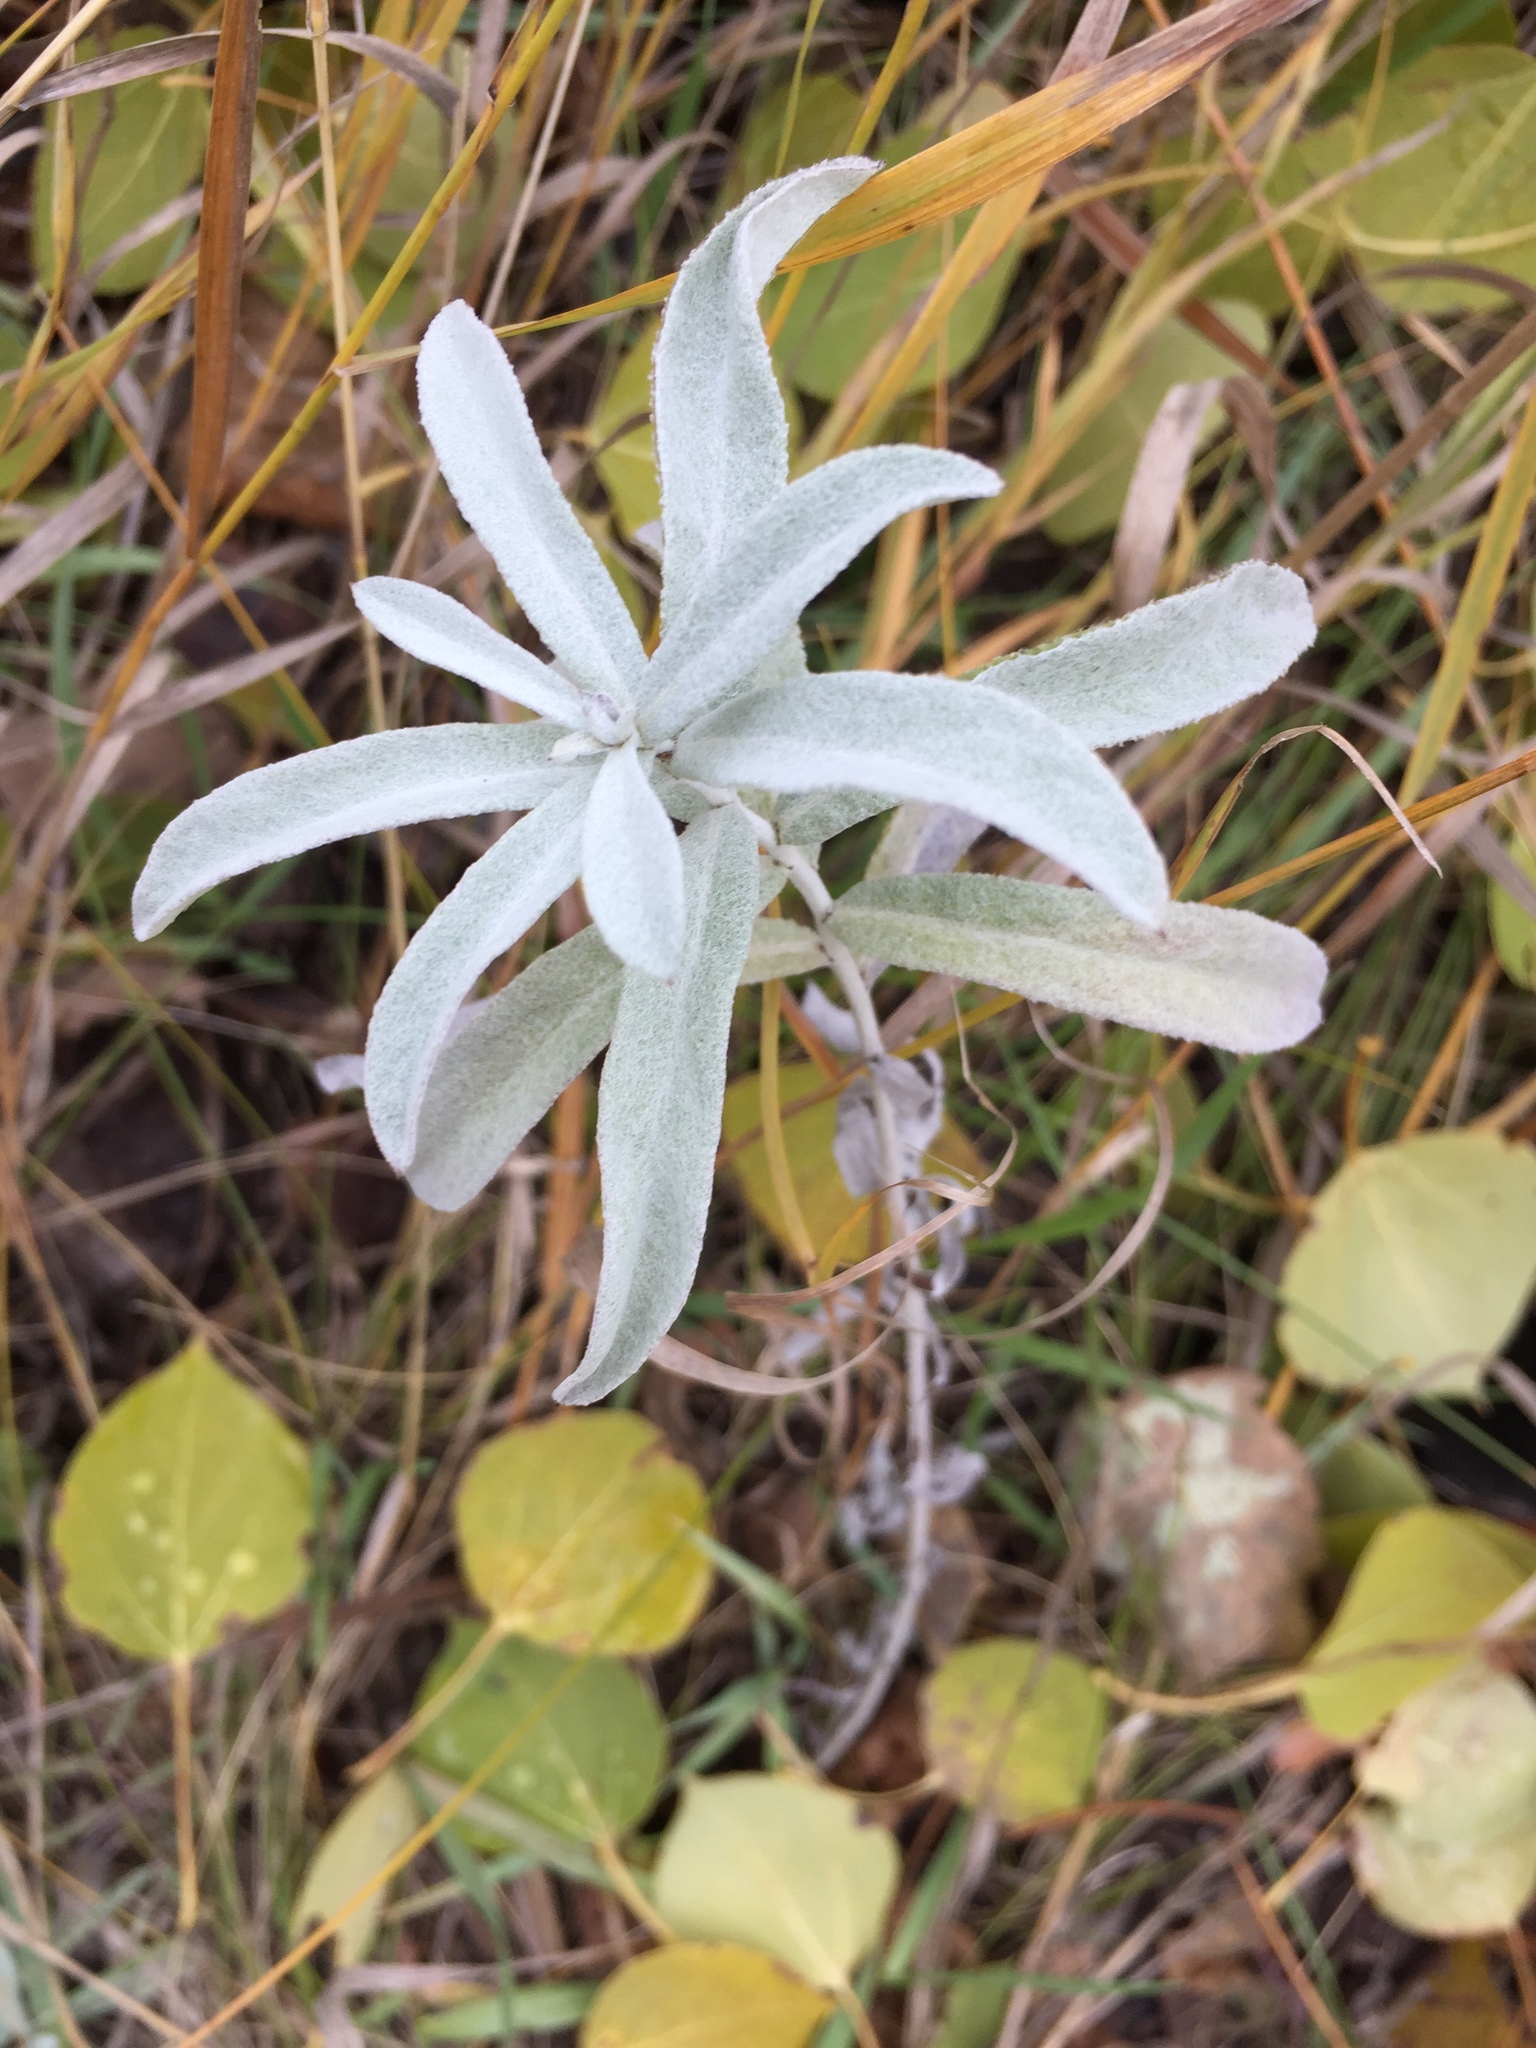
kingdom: Plantae
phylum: Tracheophyta
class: Magnoliopsida
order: Asterales
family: Asteraceae
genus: Artemisia
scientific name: Artemisia ludoviciana
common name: Western mugwort
